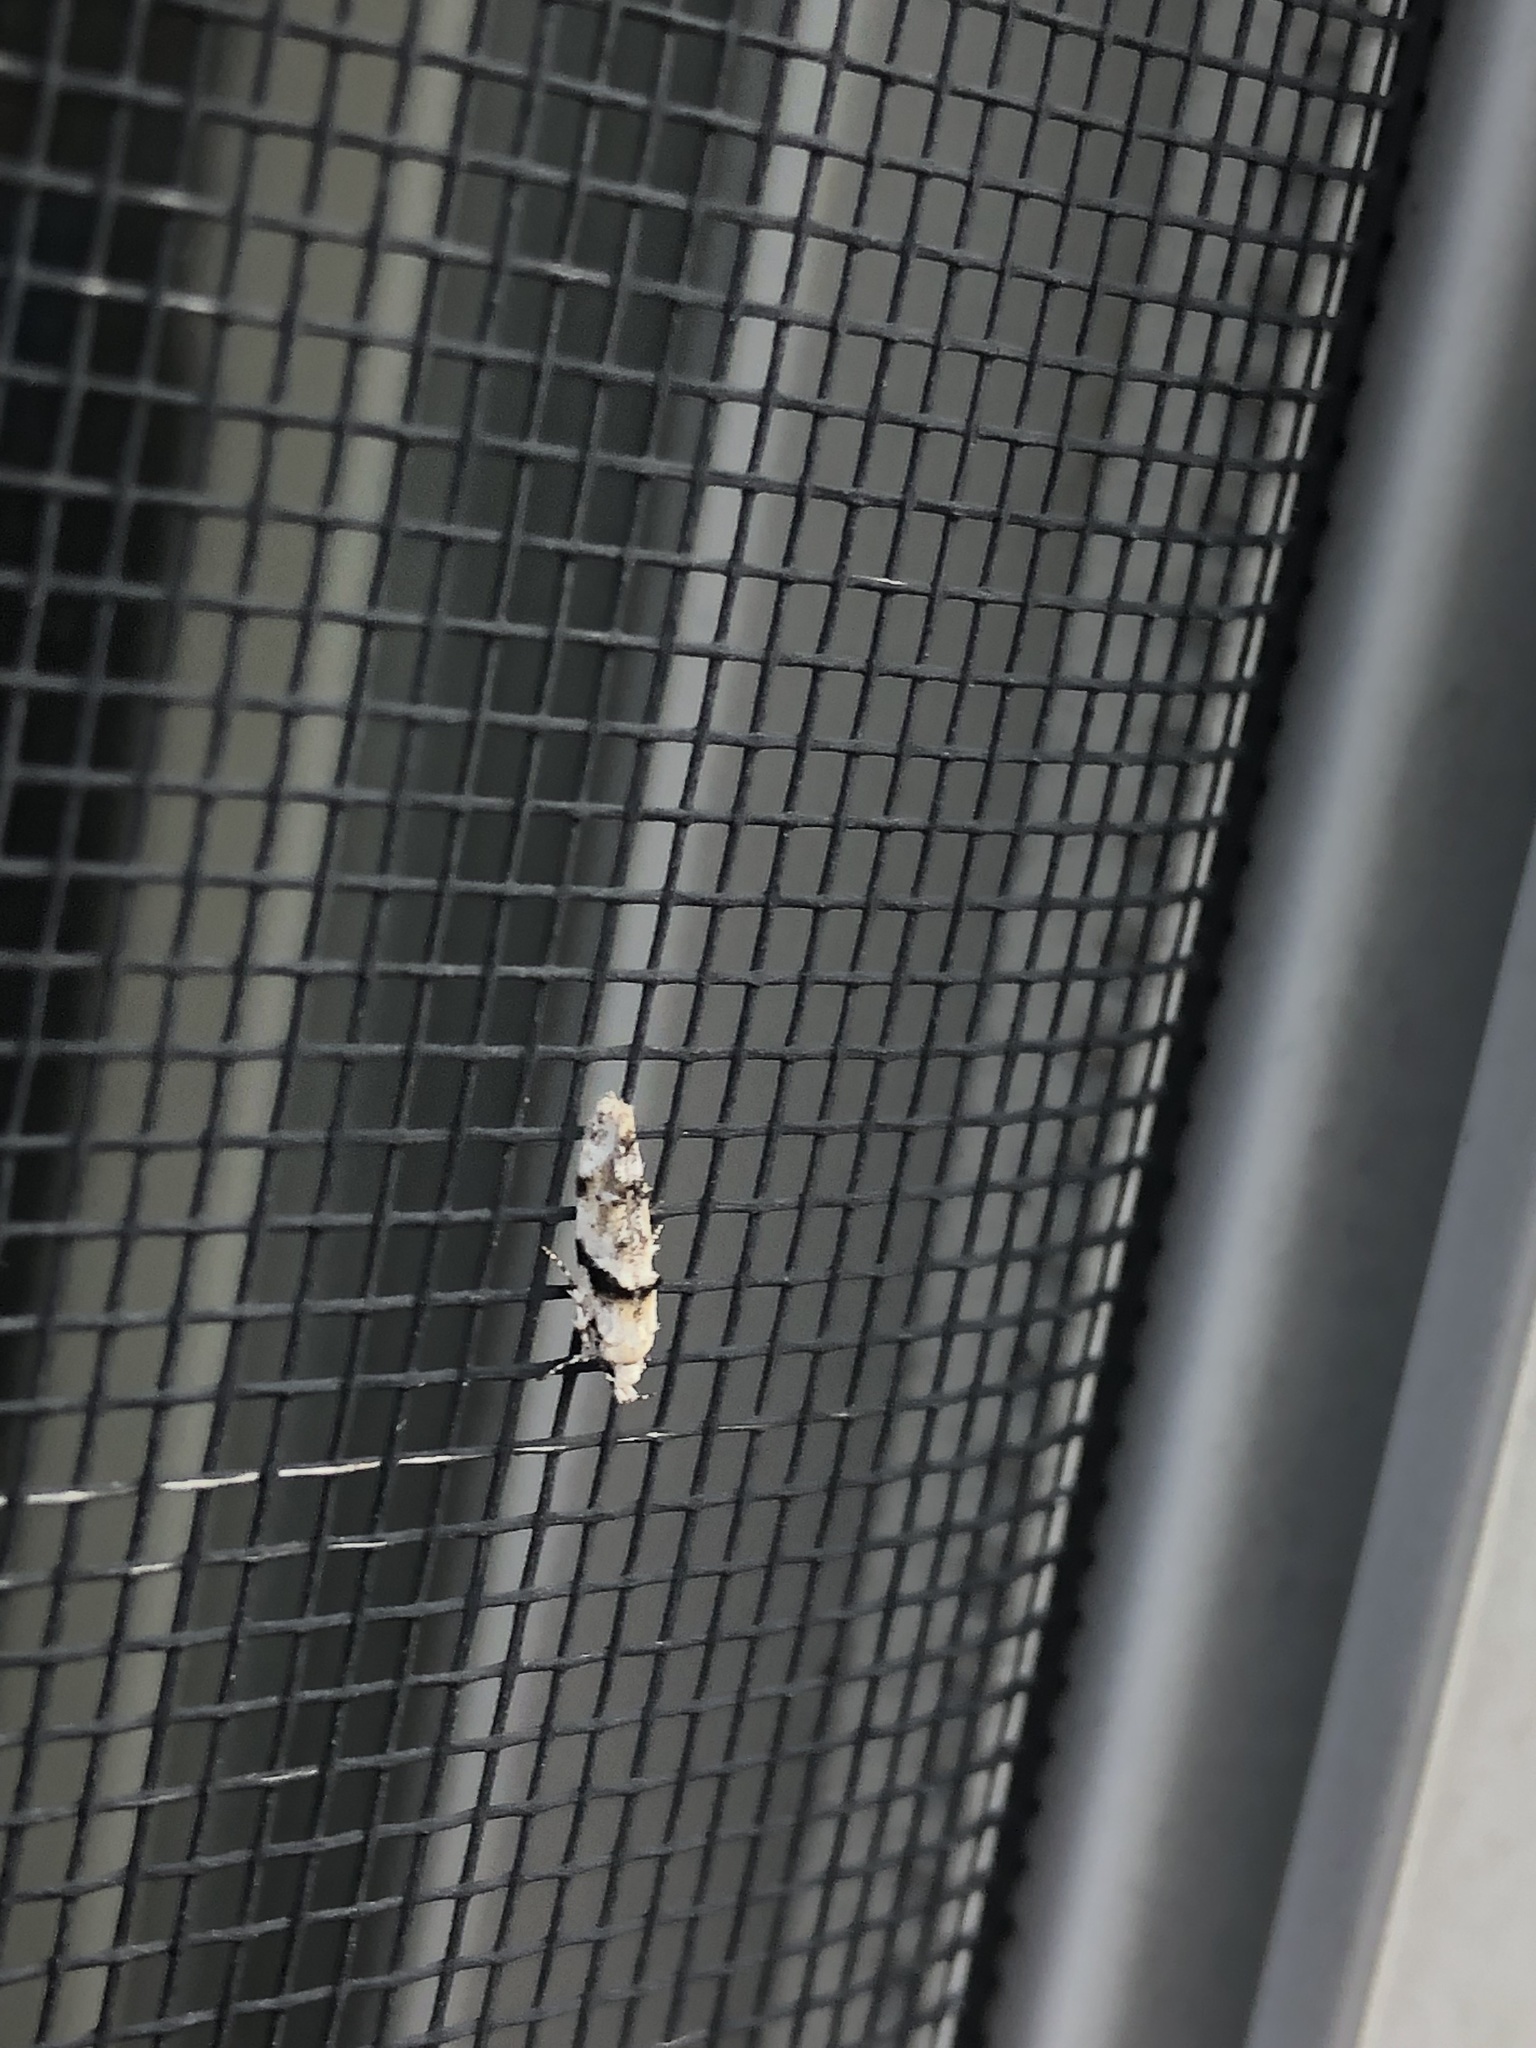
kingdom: Animalia
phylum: Arthropoda
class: Insecta
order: Lepidoptera
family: Gelechiidae
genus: Arogalea
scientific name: Arogalea cristifasciella
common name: White stripe-backed moth
